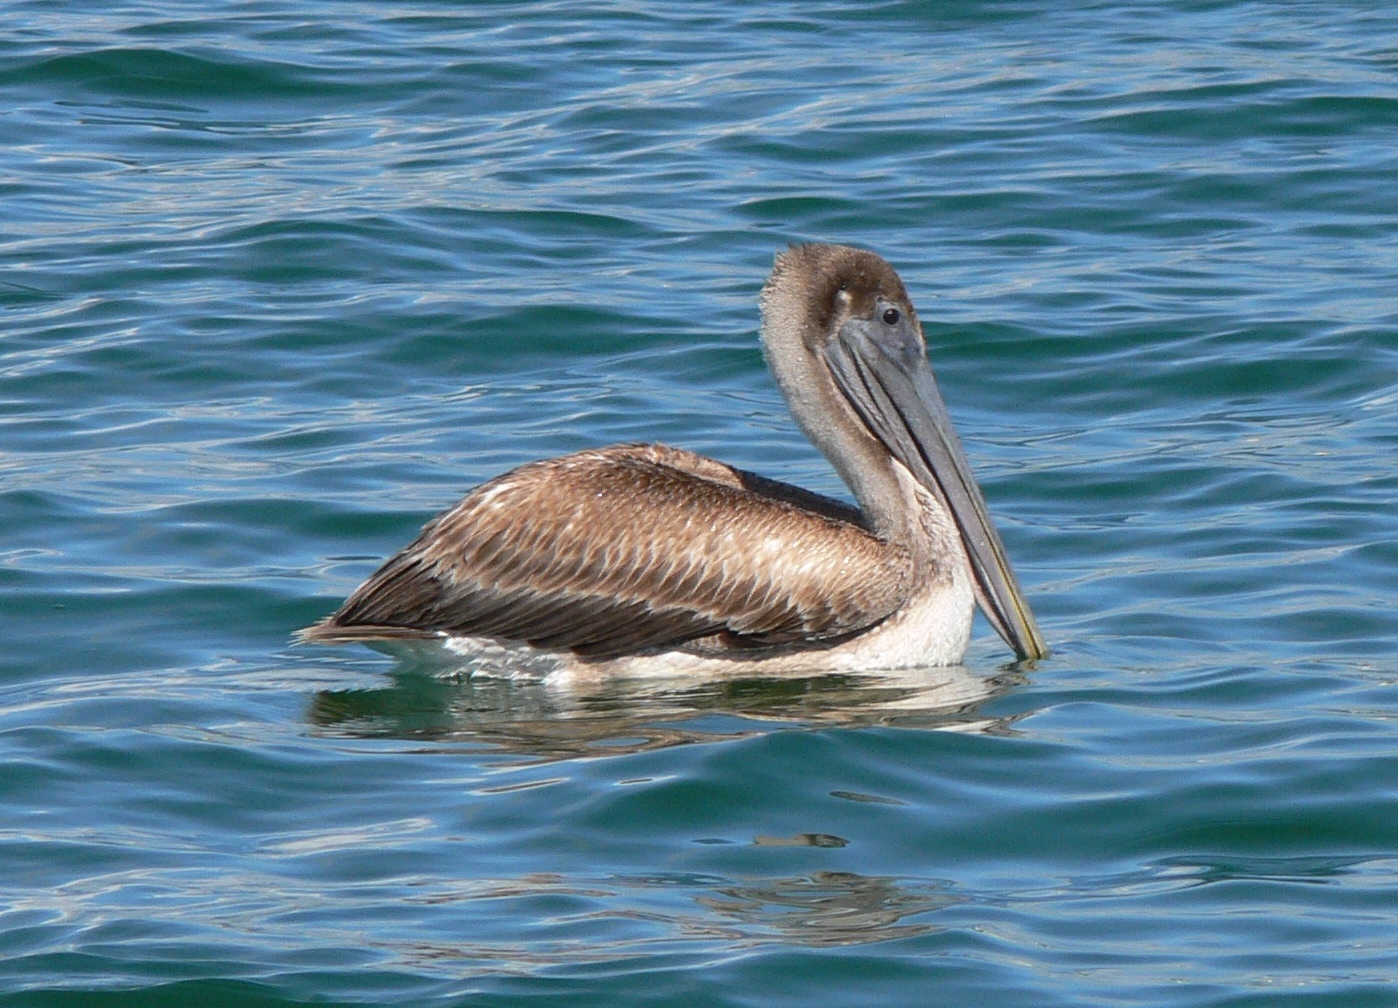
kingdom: Animalia
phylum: Chordata
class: Aves
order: Pelecaniformes
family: Pelecanidae
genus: Pelecanus
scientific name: Pelecanus occidentalis
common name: Brown pelican
